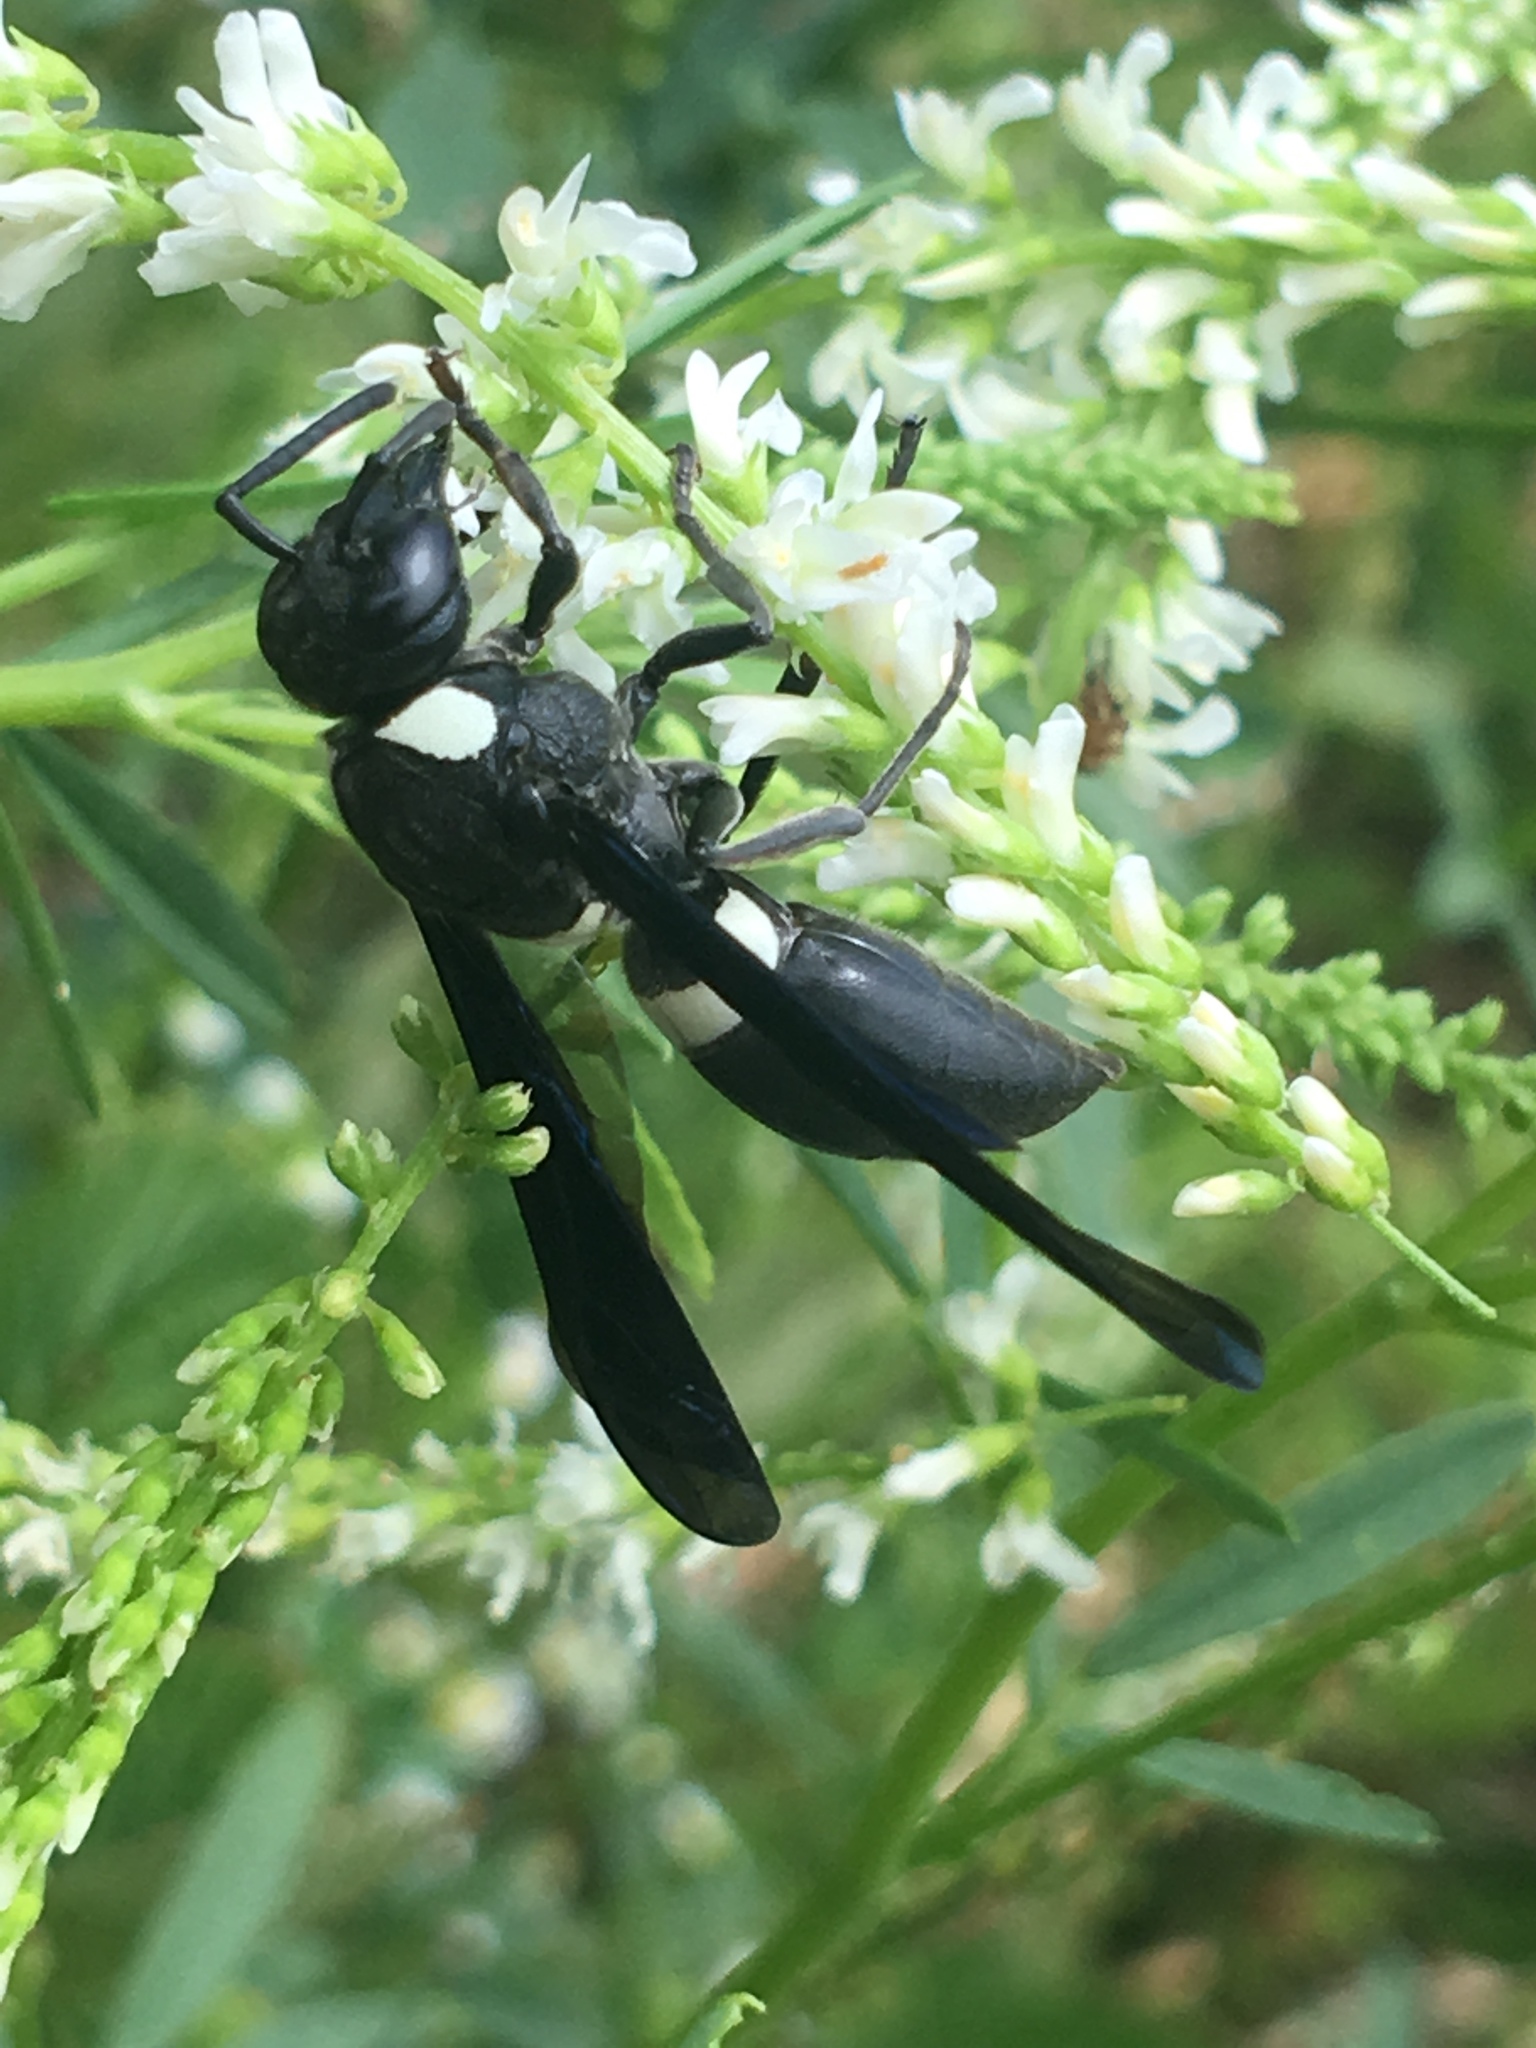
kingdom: Animalia
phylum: Arthropoda
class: Insecta
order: Hymenoptera
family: Eumenidae
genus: Monobia
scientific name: Monobia quadridens
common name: Four-toothed mason wasp
